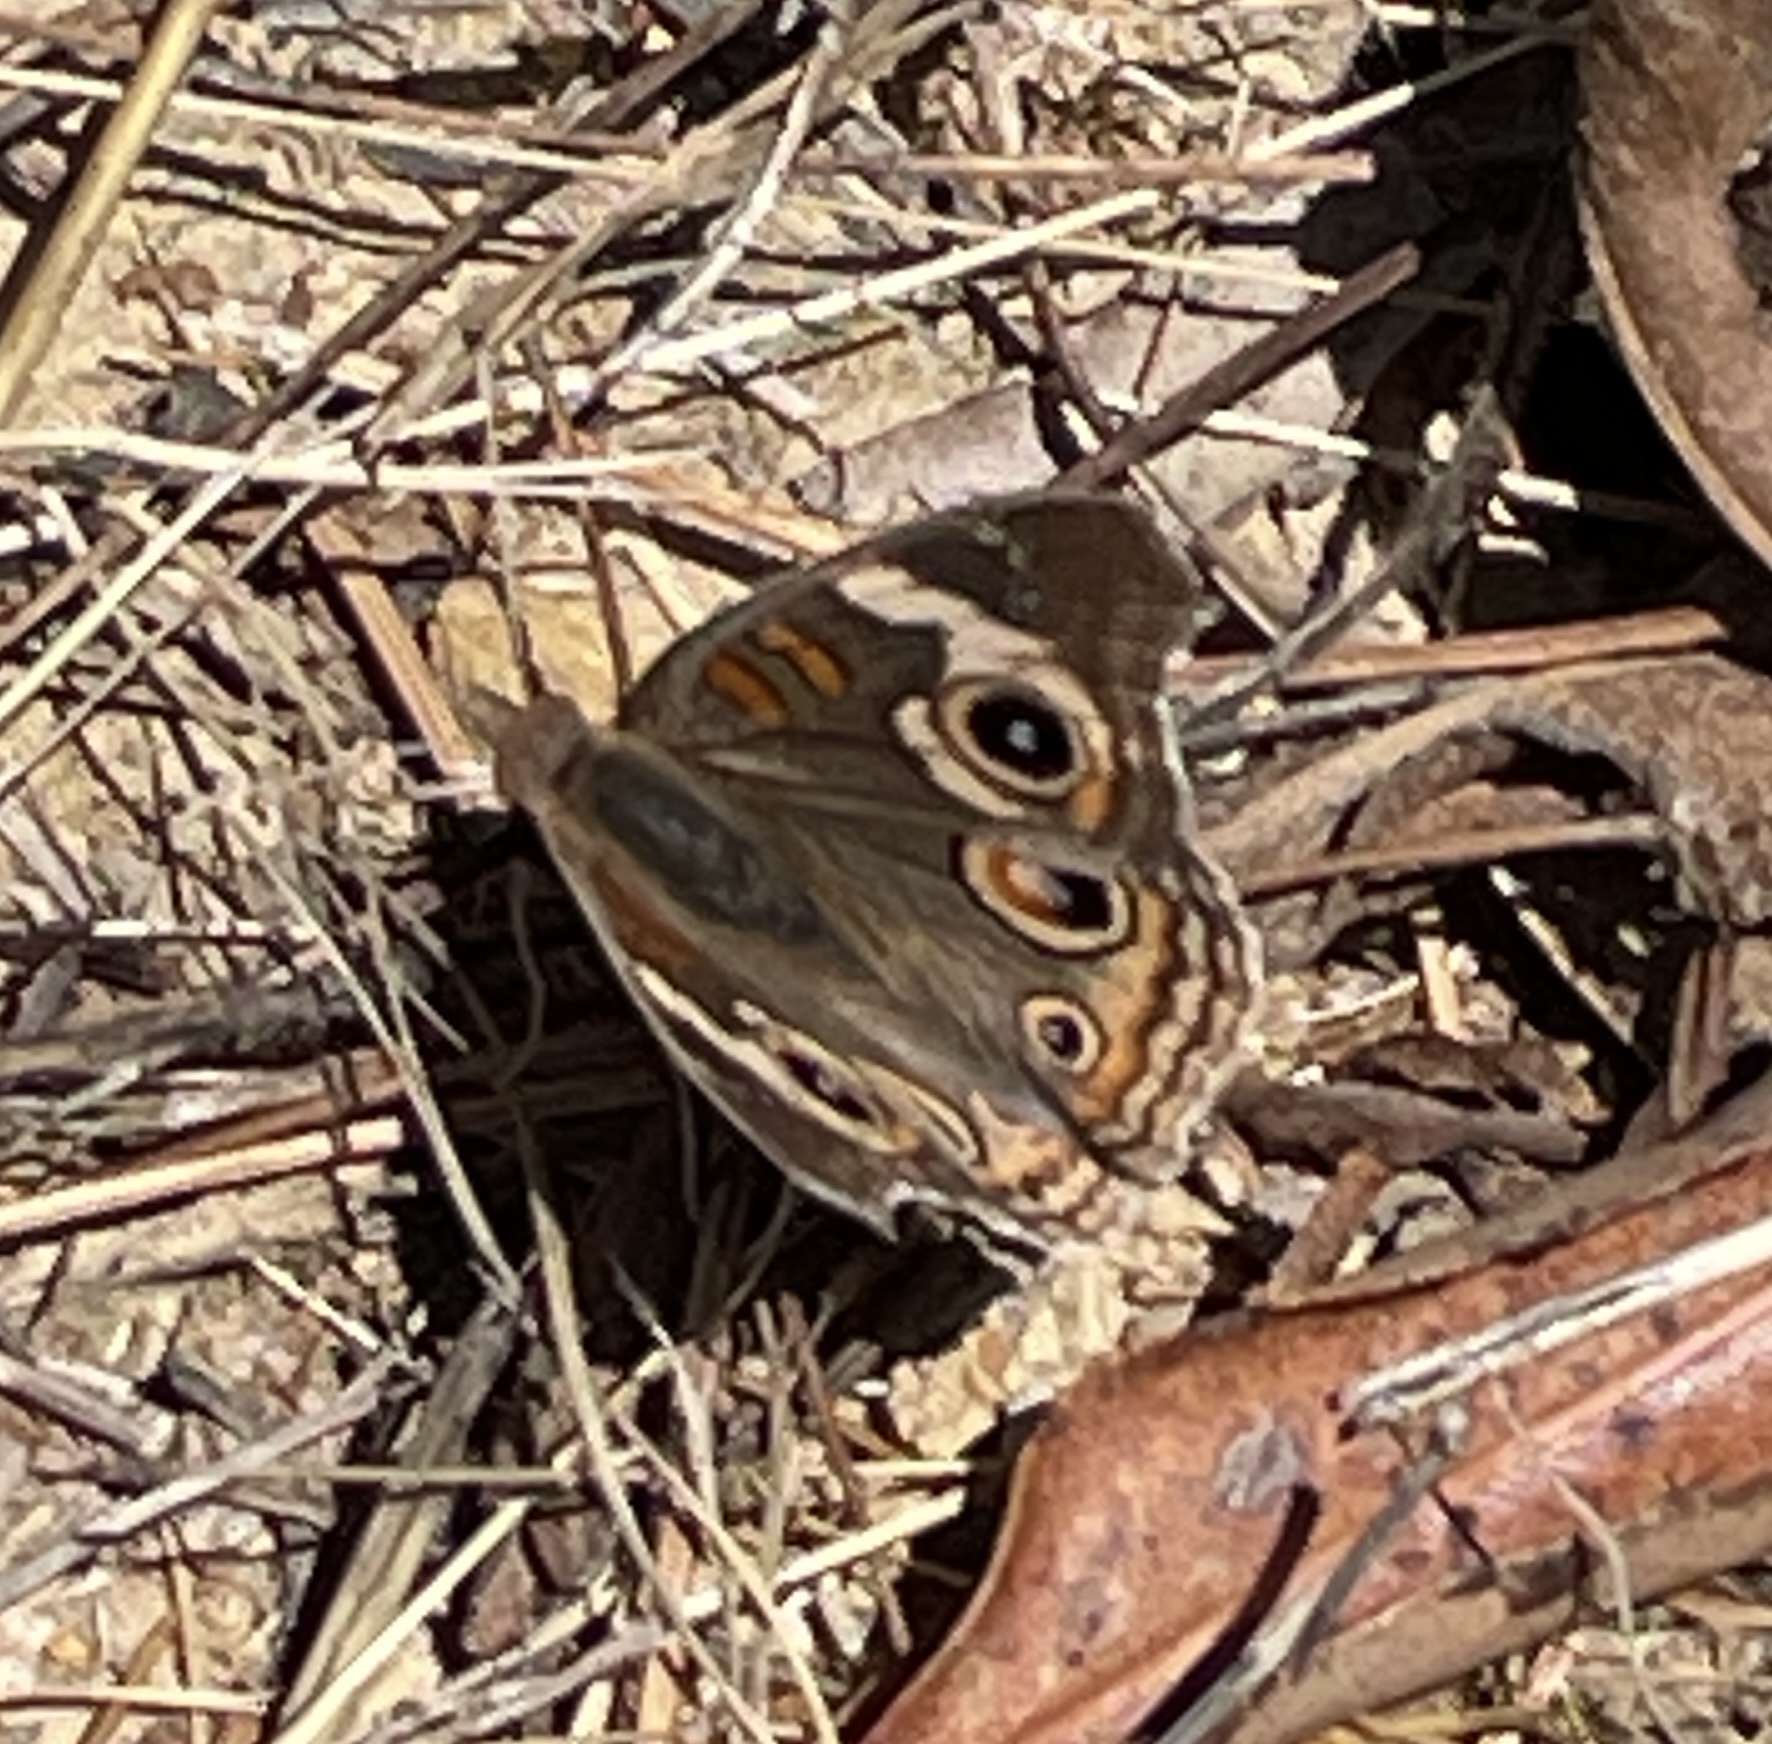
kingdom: Animalia
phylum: Arthropoda
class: Insecta
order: Lepidoptera
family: Nymphalidae
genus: Junonia
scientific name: Junonia grisea
